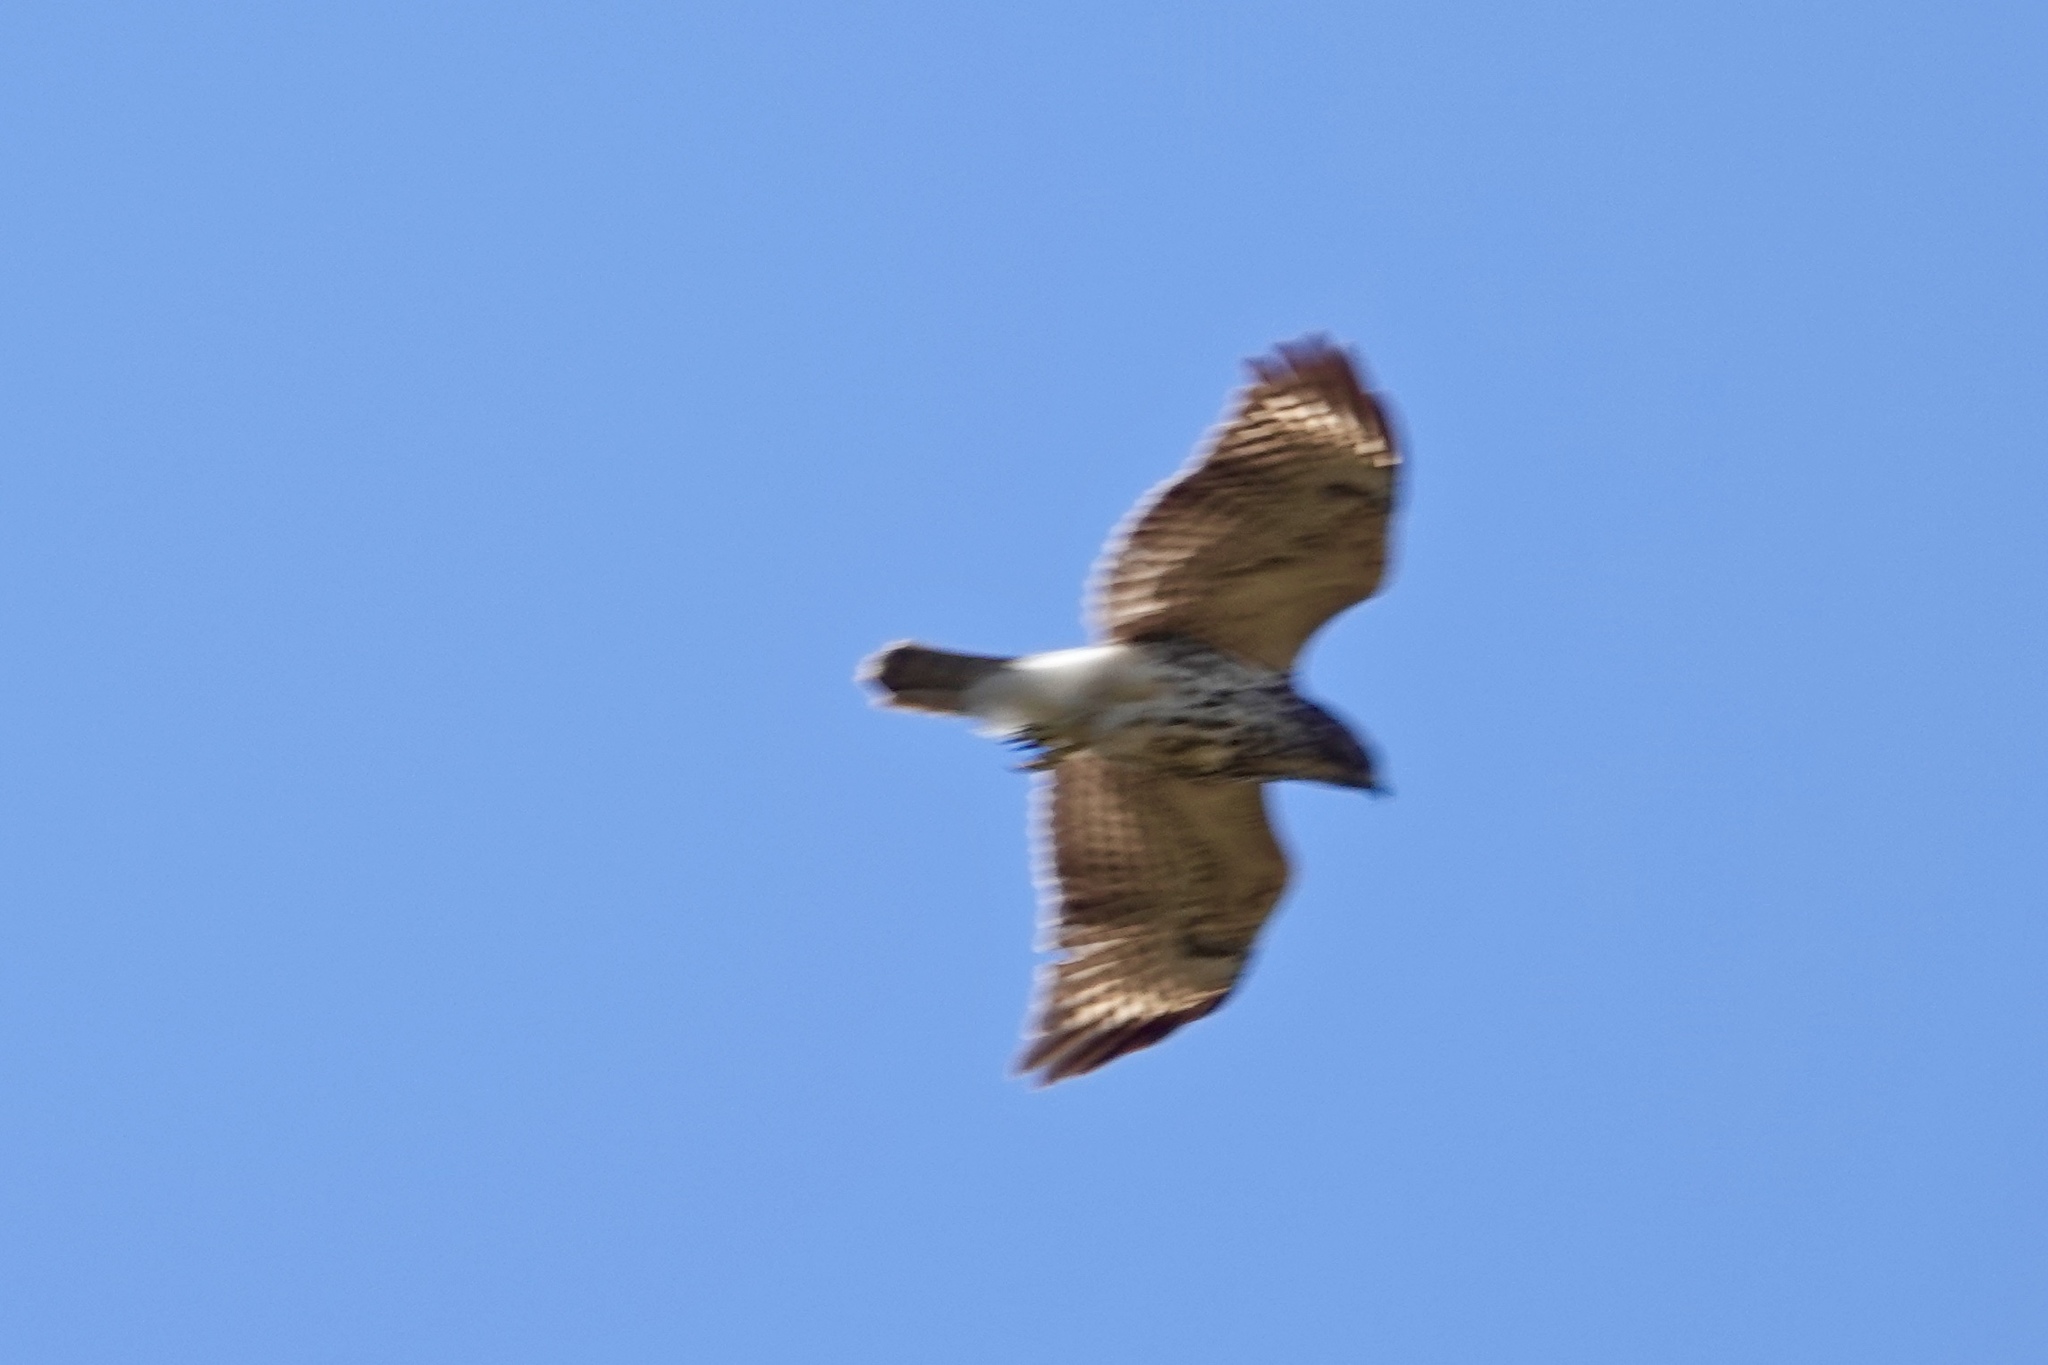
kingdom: Animalia
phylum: Chordata
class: Aves
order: Accipitriformes
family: Accipitridae
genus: Buteo
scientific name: Buteo lineatus
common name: Red-shouldered hawk
